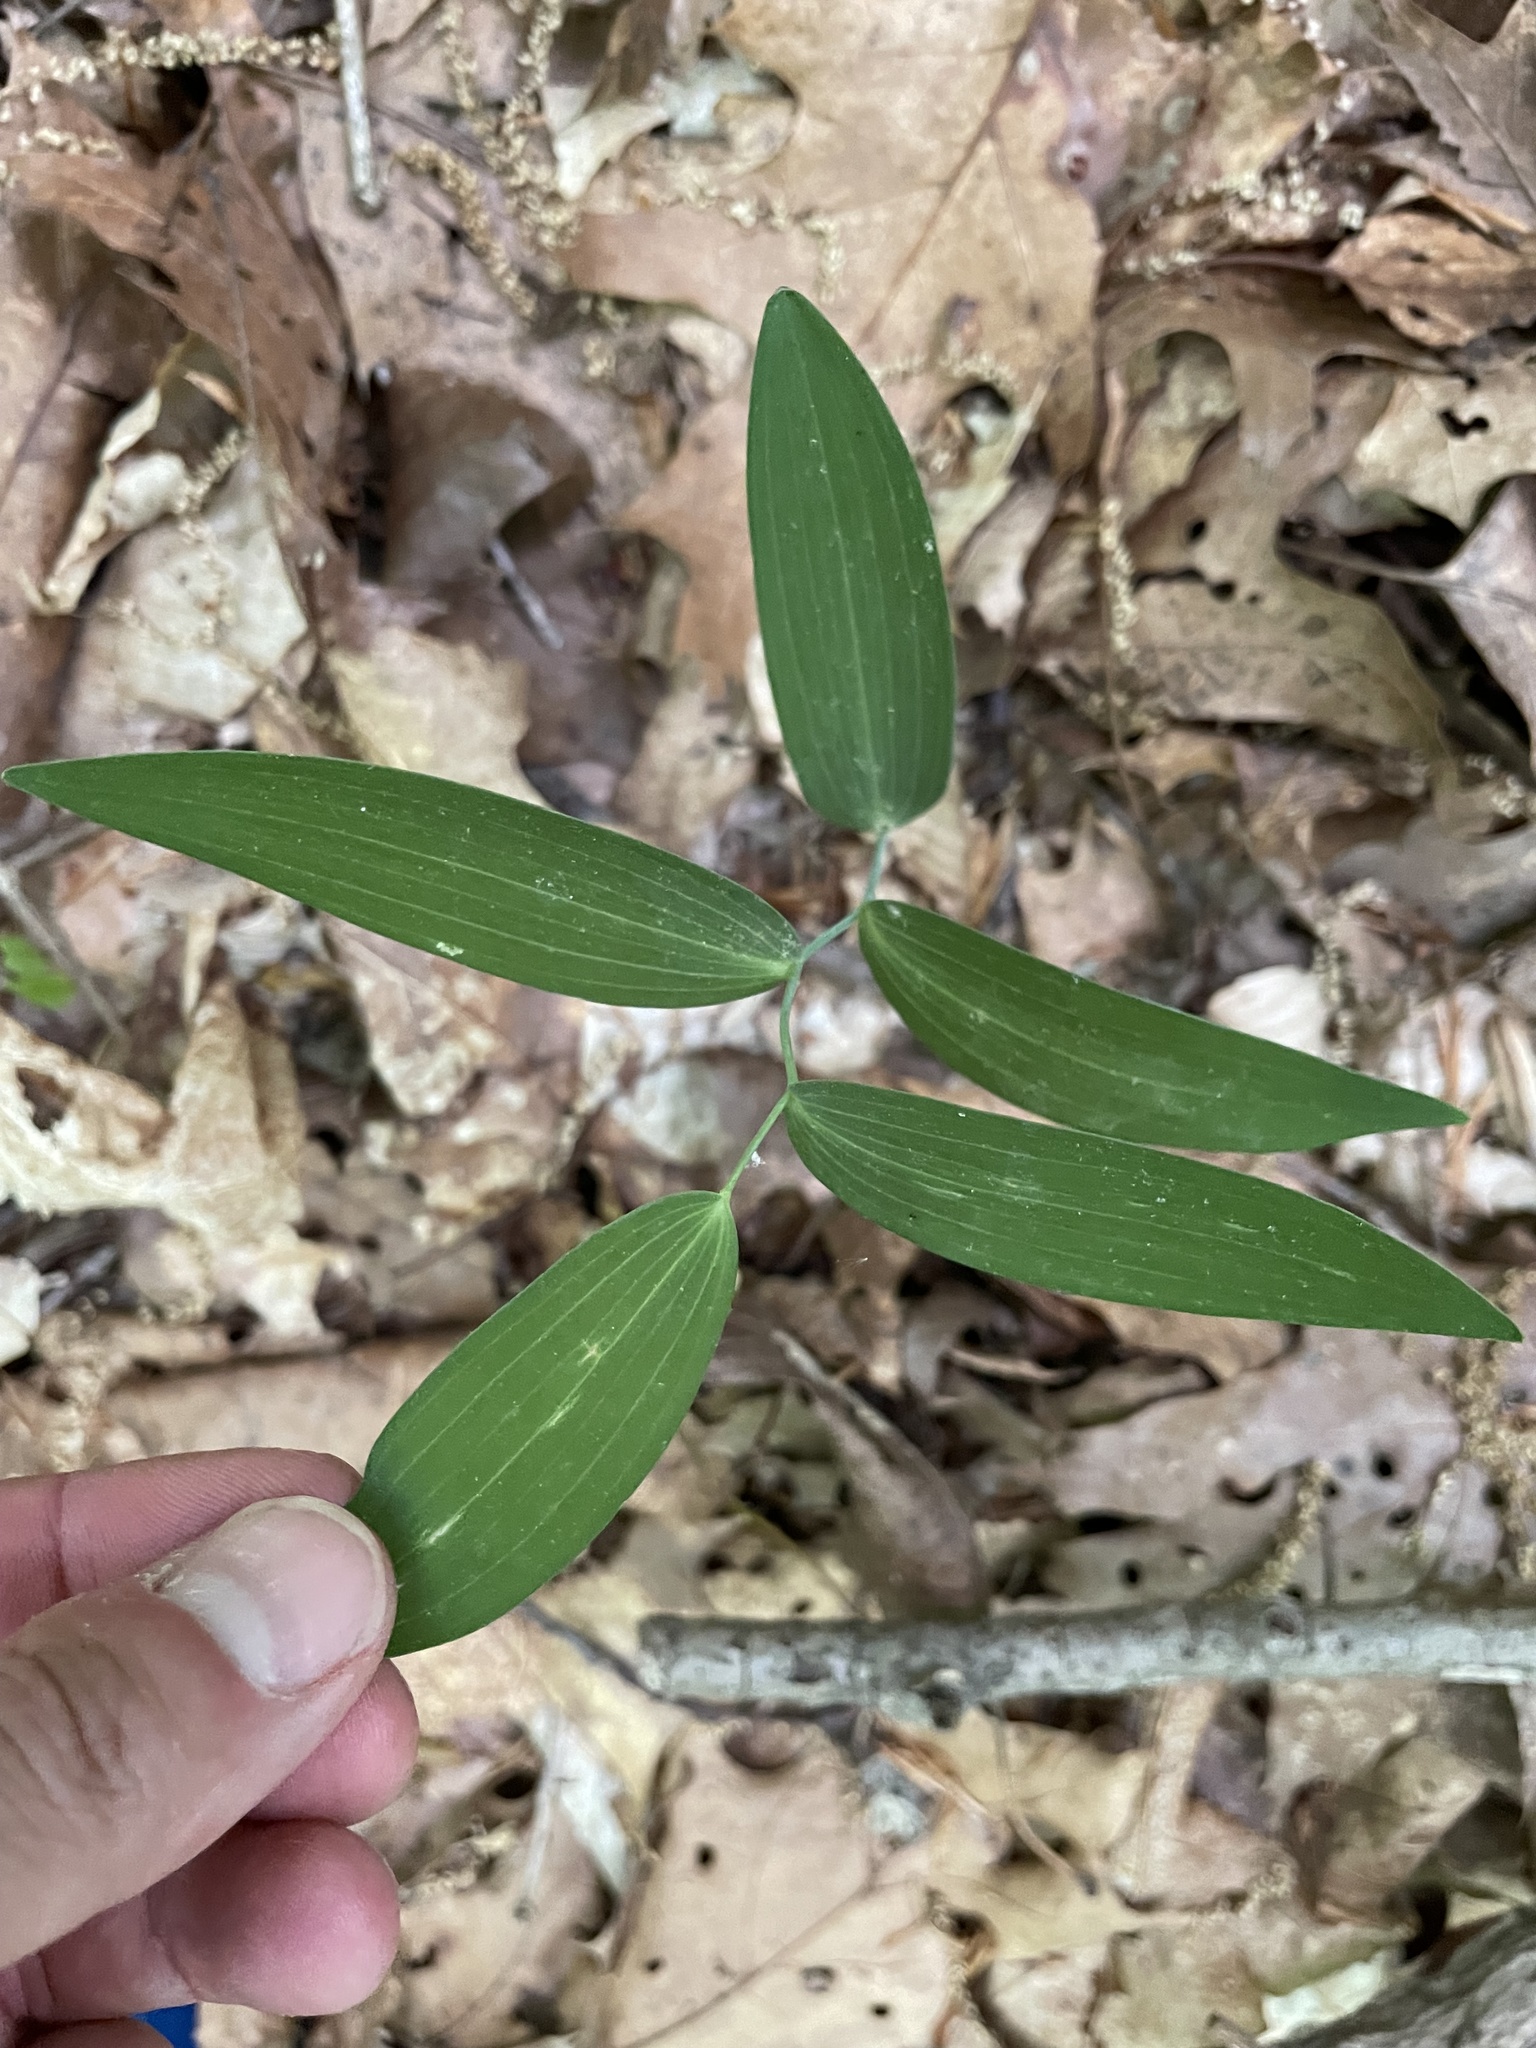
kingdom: Plantae
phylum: Tracheophyta
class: Liliopsida
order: Asparagales
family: Asparagaceae
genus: Polygonatum
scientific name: Polygonatum biflorum
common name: American solomon's-seal
